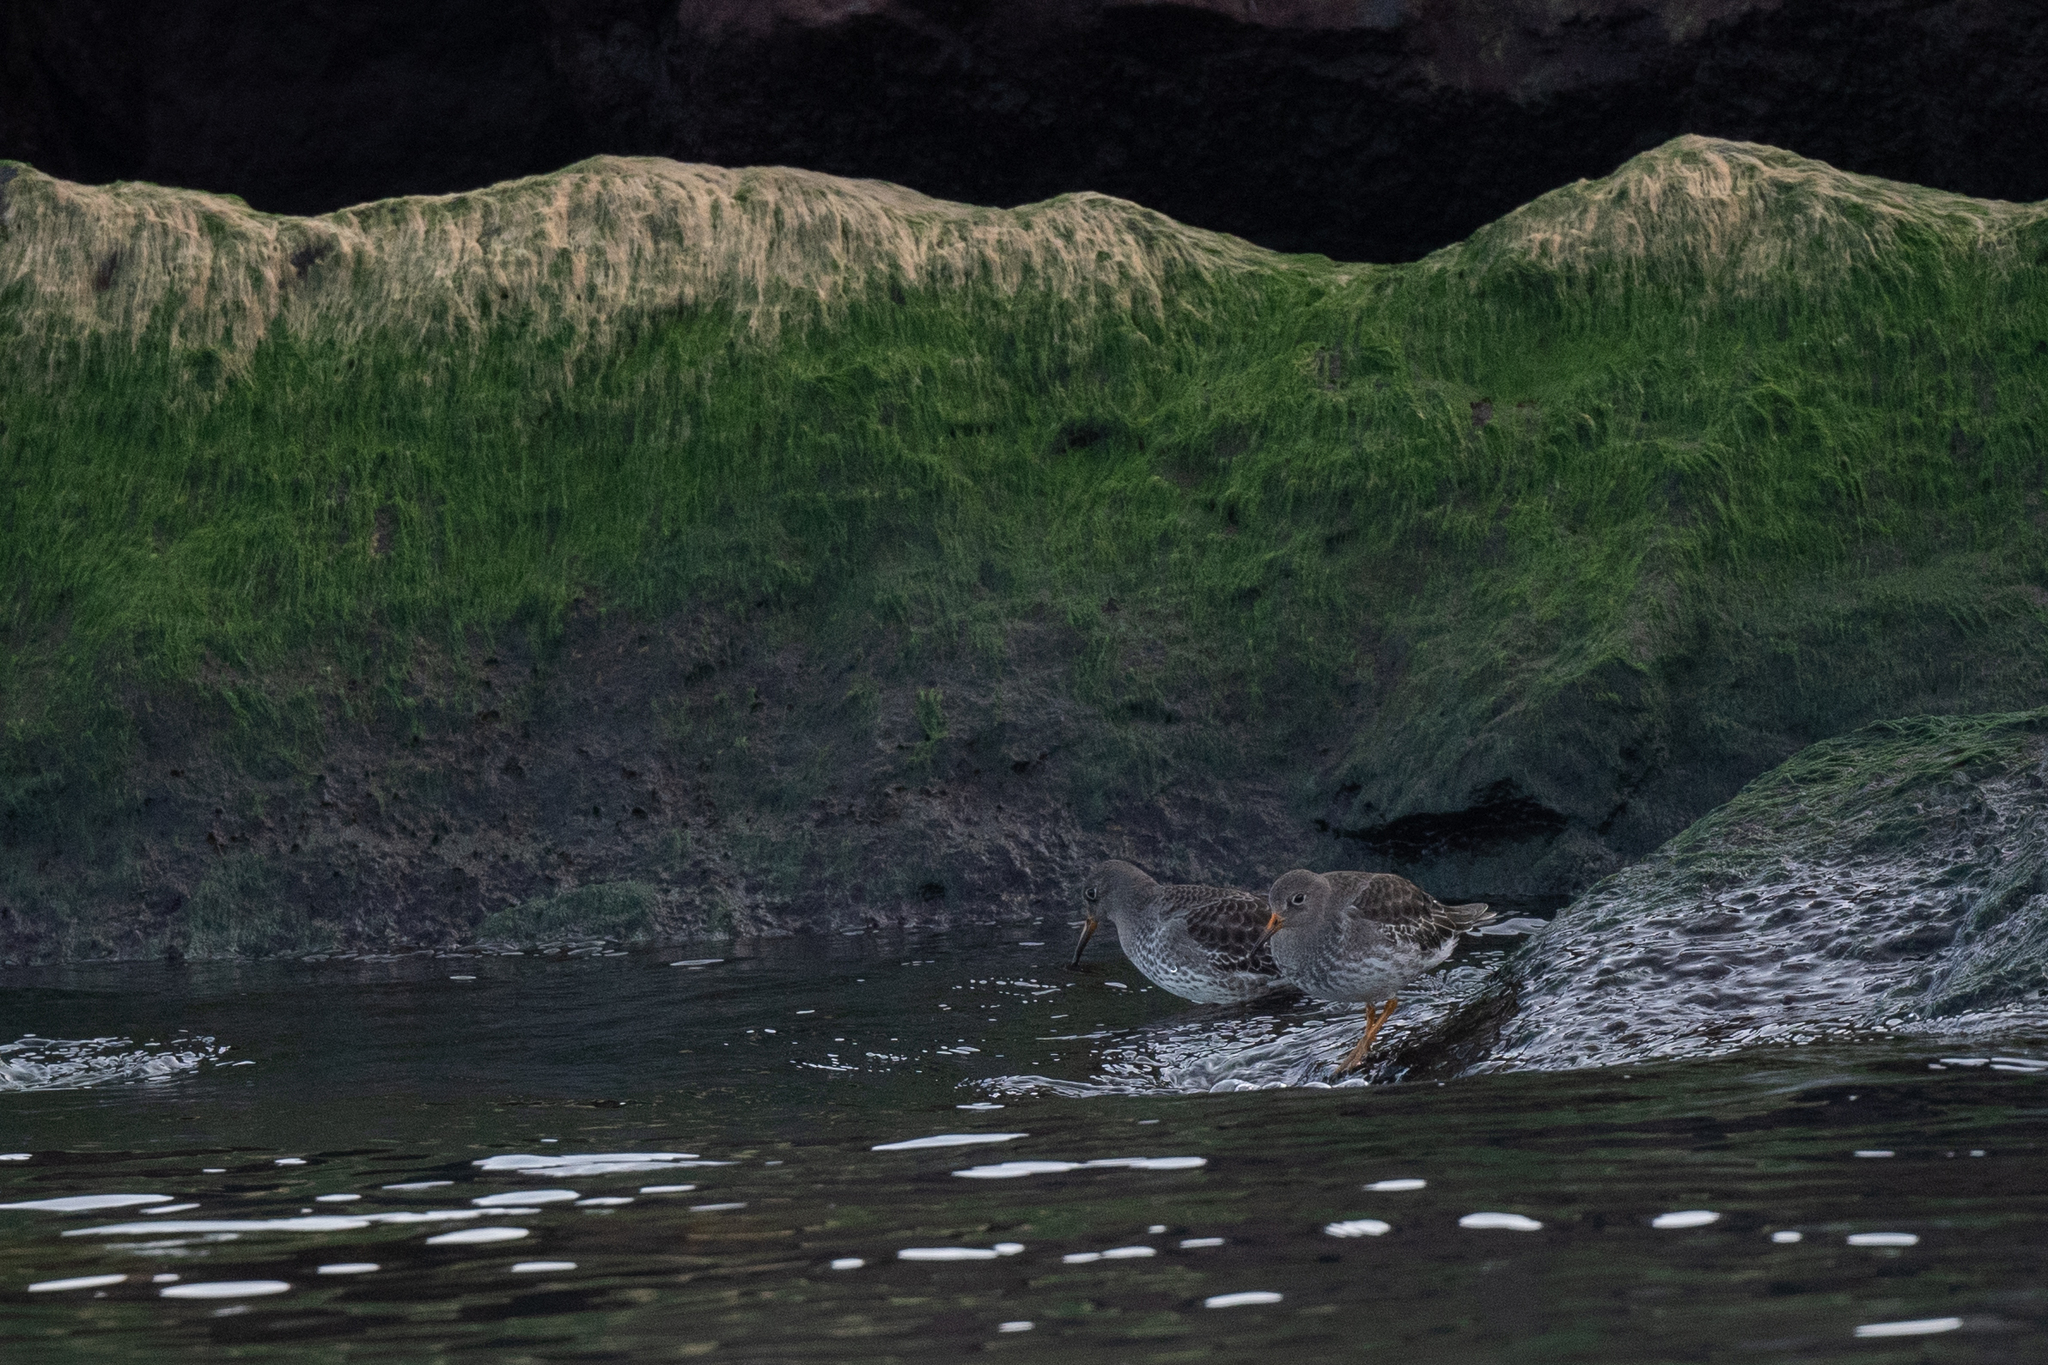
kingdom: Animalia
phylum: Chordata
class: Aves
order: Charadriiformes
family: Scolopacidae
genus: Calidris
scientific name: Calidris maritima
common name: Purple sandpiper
